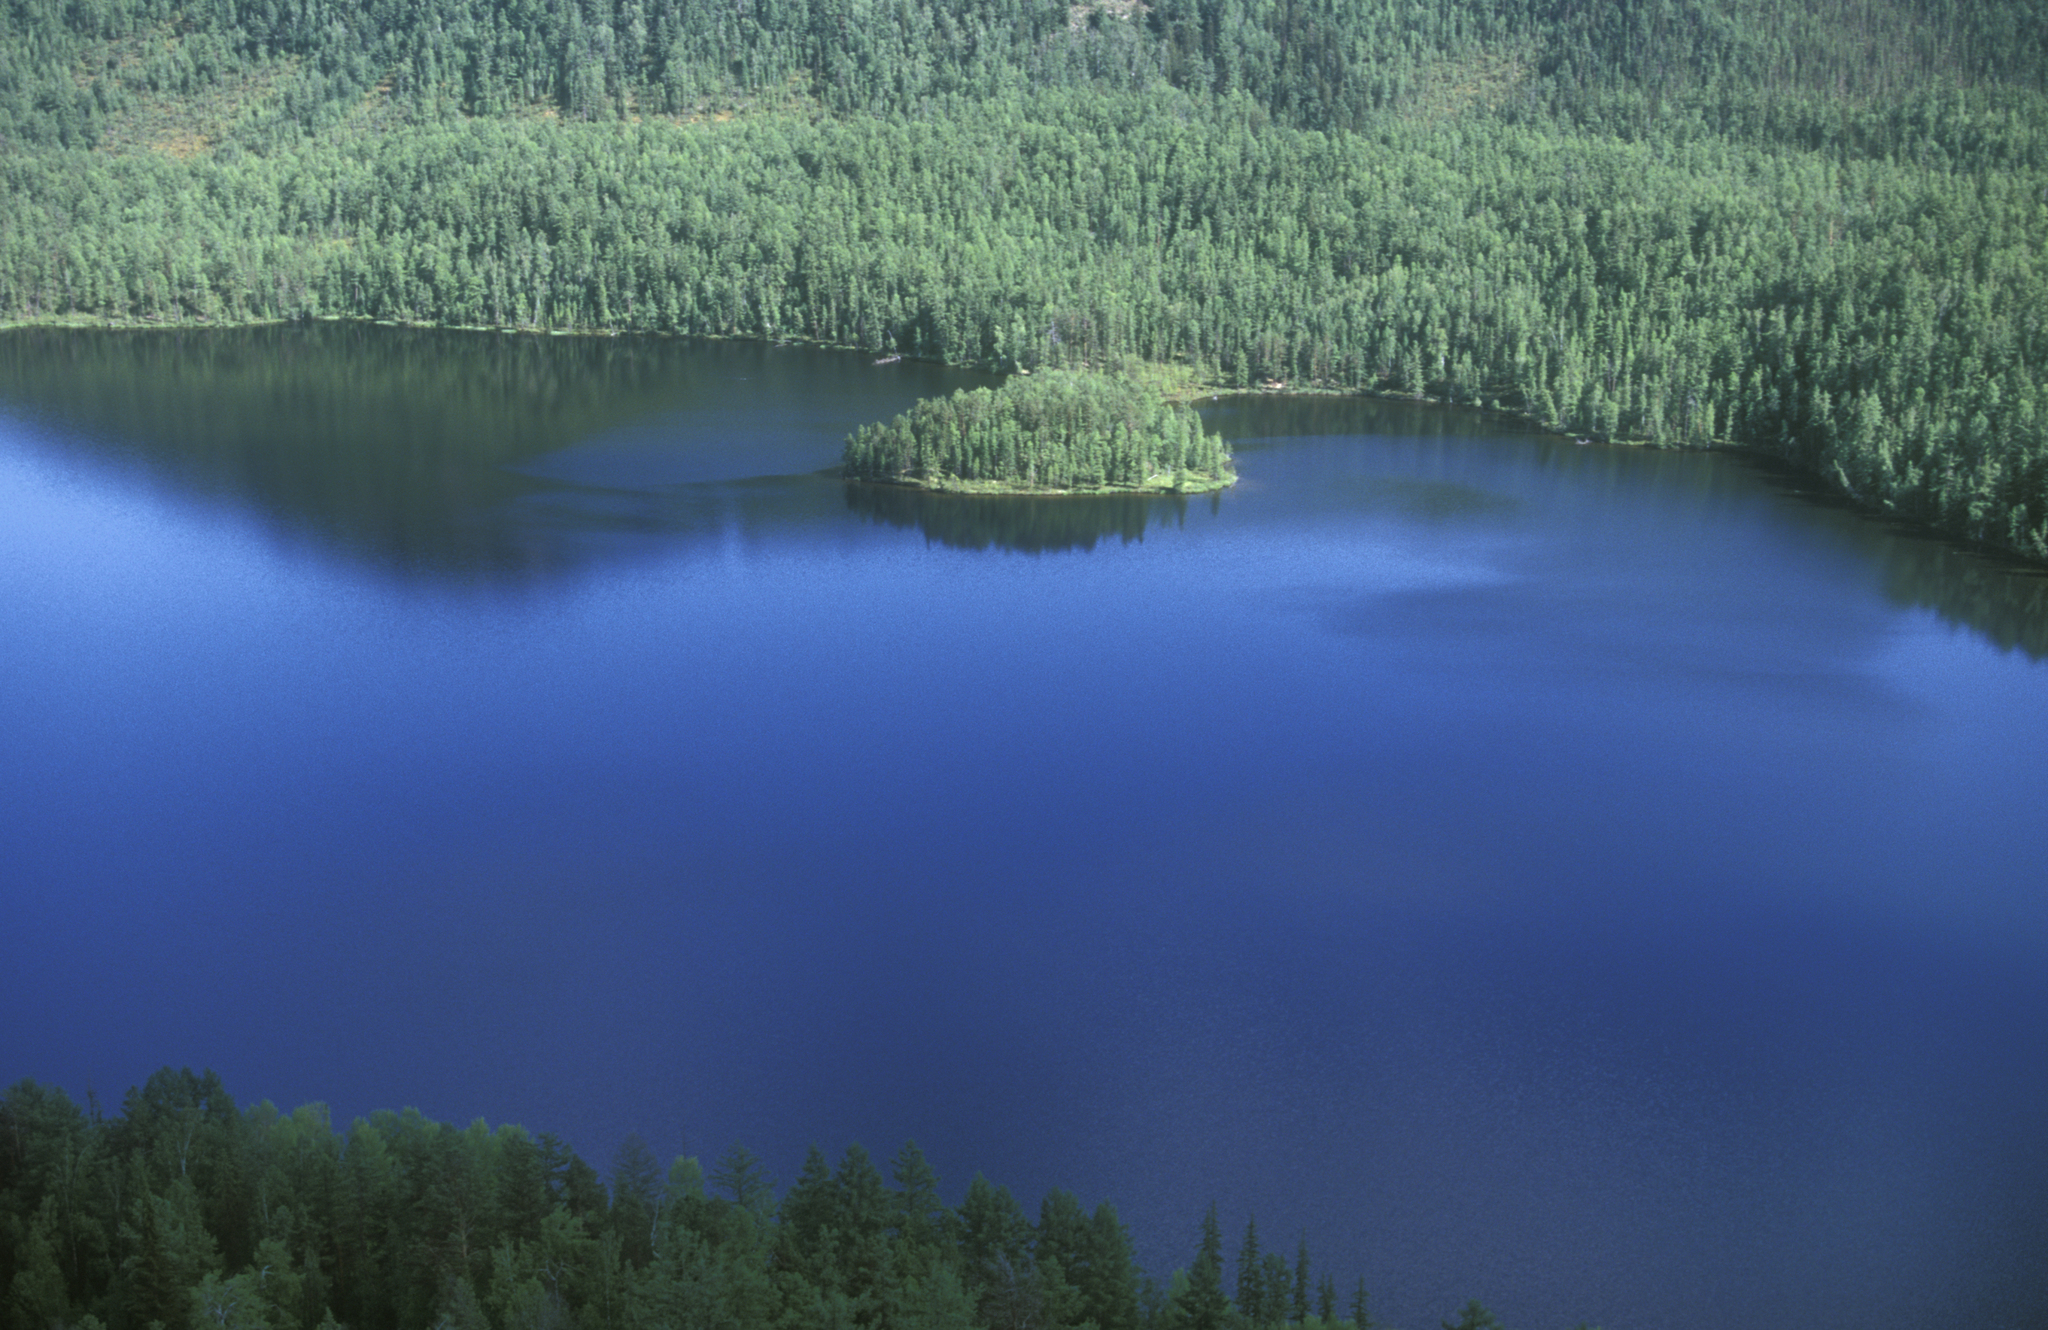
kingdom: Plantae
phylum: Tracheophyta
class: Pinopsida
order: Pinales
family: Pinaceae
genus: Larix
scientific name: Larix sibirica
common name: Siberian larch
